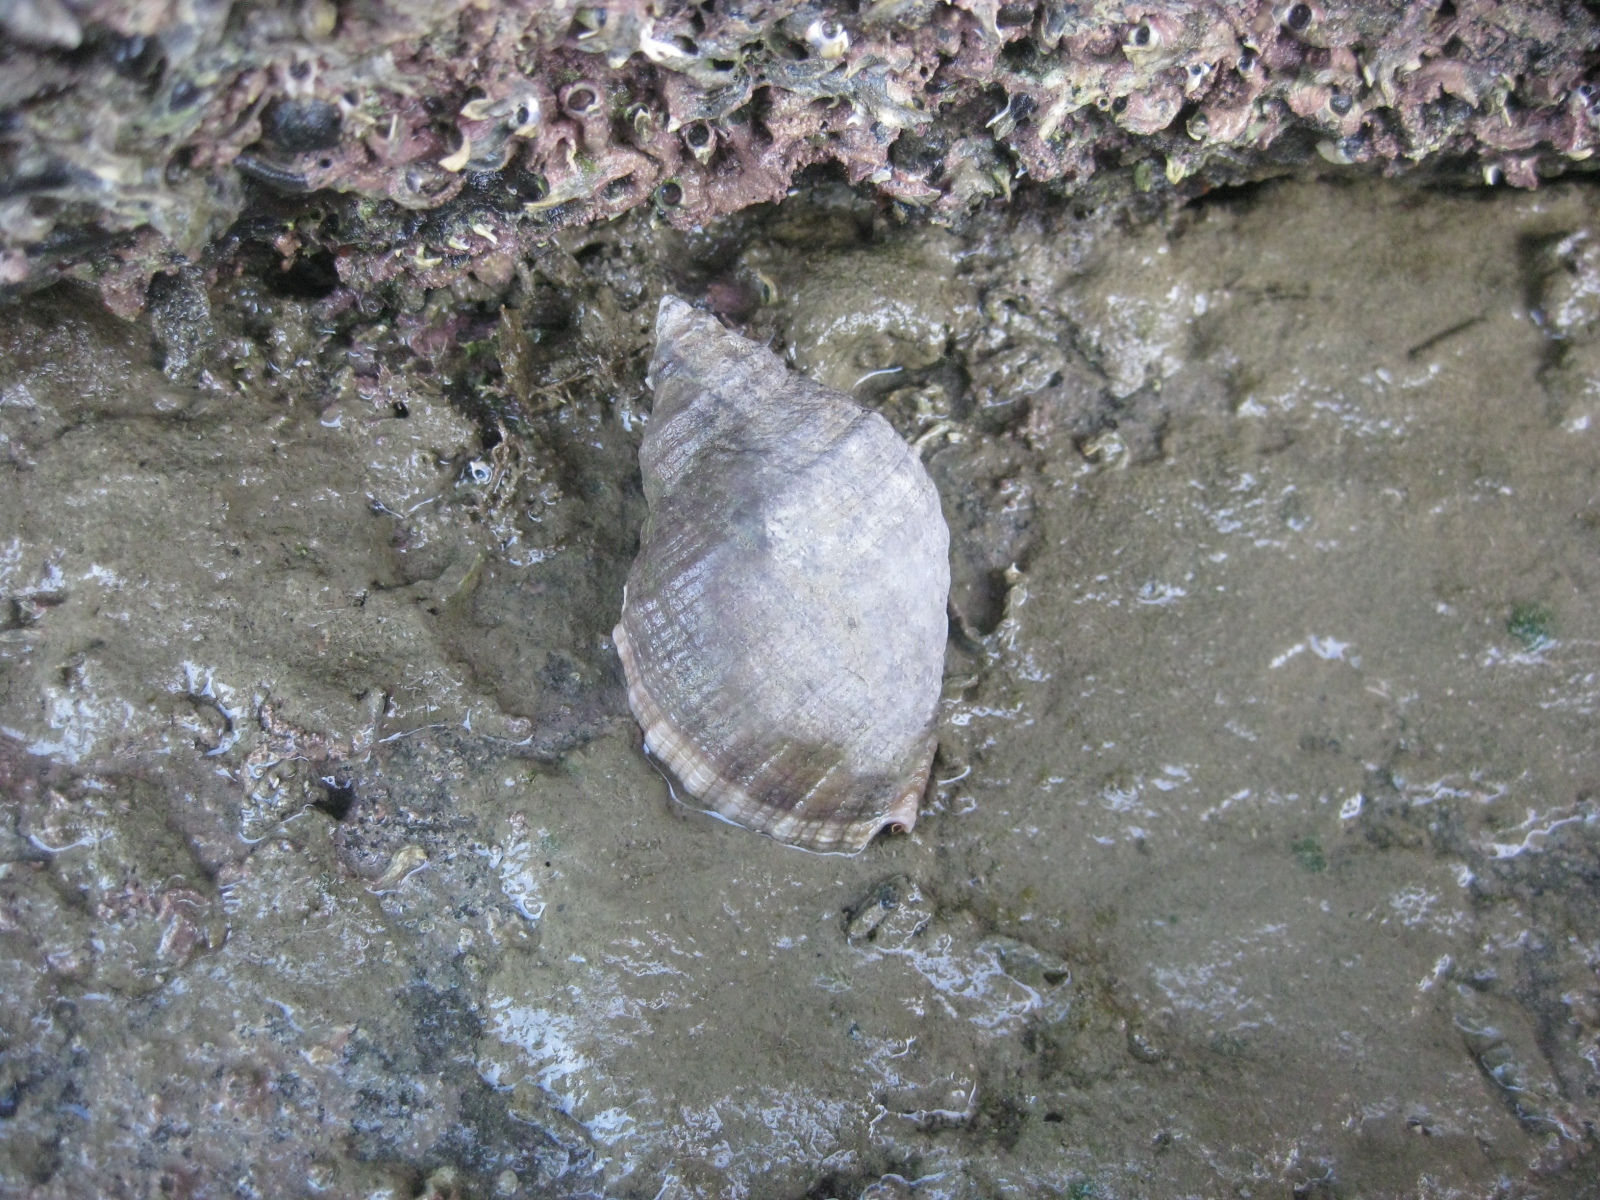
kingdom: Animalia
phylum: Mollusca
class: Gastropoda
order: Neogastropoda
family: Muricidae
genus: Dicathais
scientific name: Dicathais orbita
